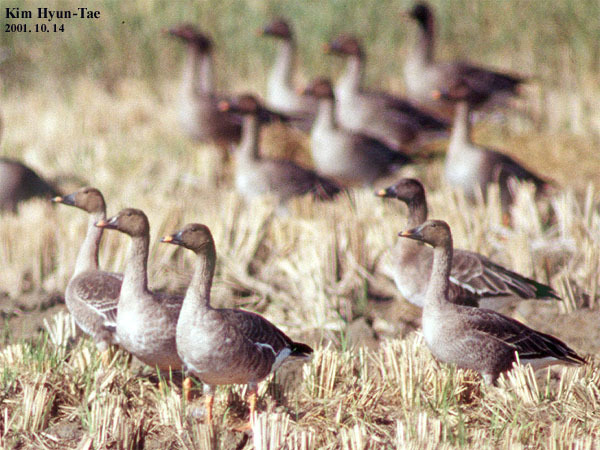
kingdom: Animalia
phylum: Chordata
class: Aves
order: Anseriformes
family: Anatidae
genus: Anser
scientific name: Anser fabalis
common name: Bean goose
